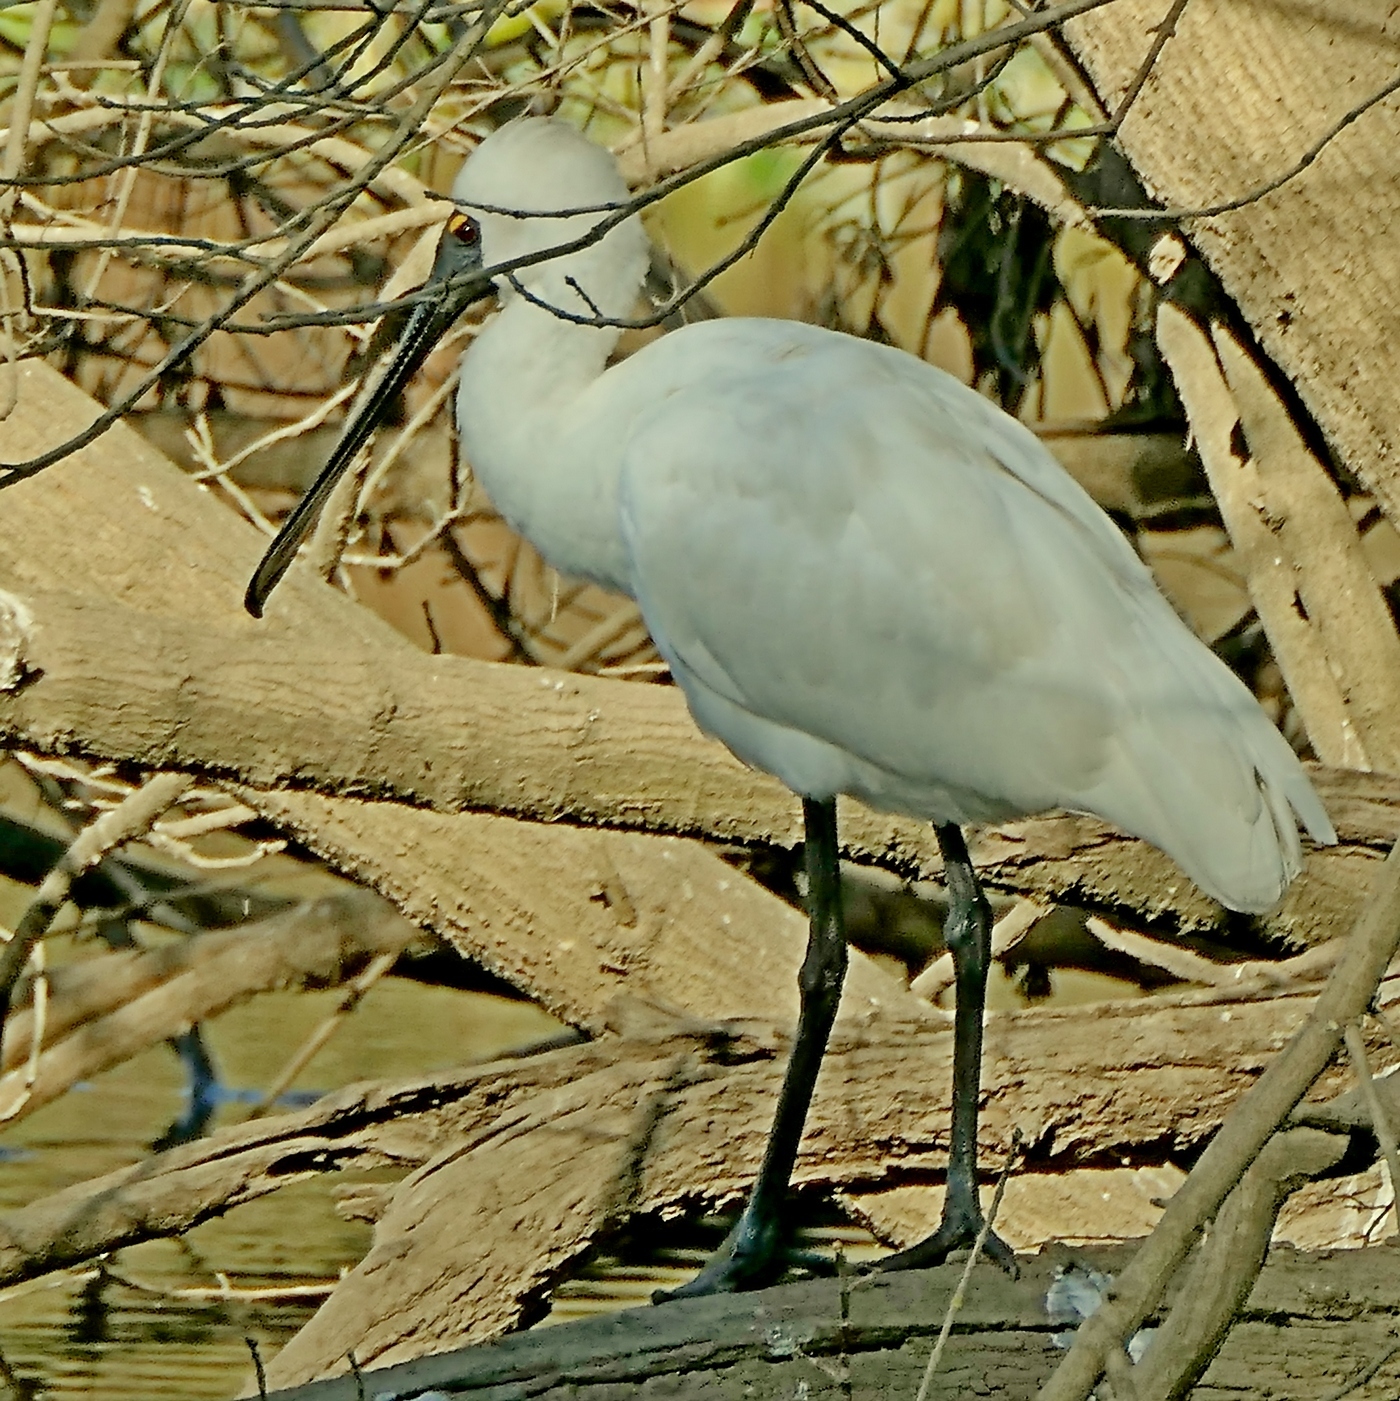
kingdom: Animalia
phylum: Chordata
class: Aves
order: Pelecaniformes
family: Threskiornithidae
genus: Platalea
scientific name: Platalea regia
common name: Royal spoonbill
